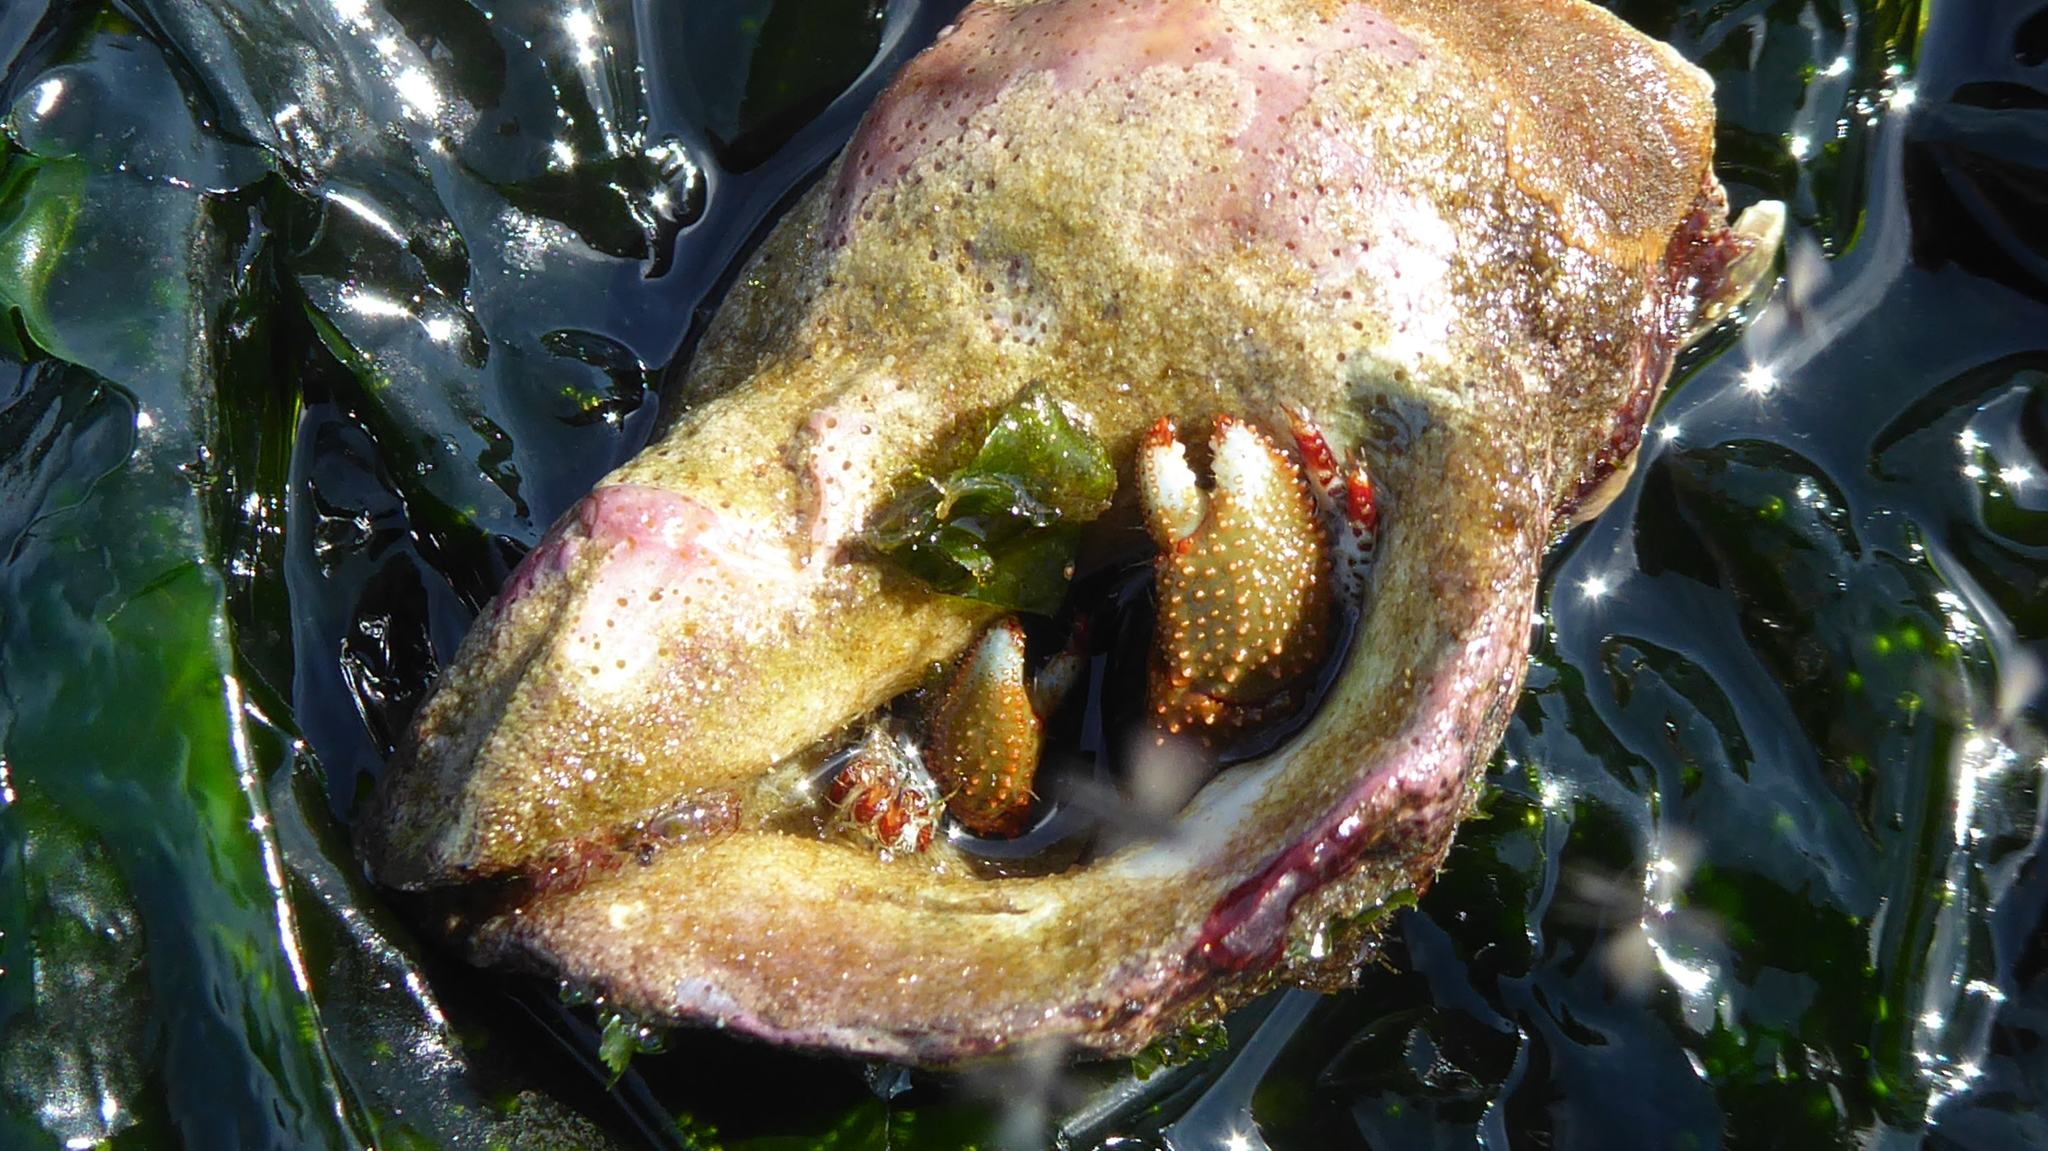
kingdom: Animalia
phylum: Arthropoda
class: Malacostraca
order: Decapoda
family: Paguridae
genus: Pagurus
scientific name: Pagurus beringanus
